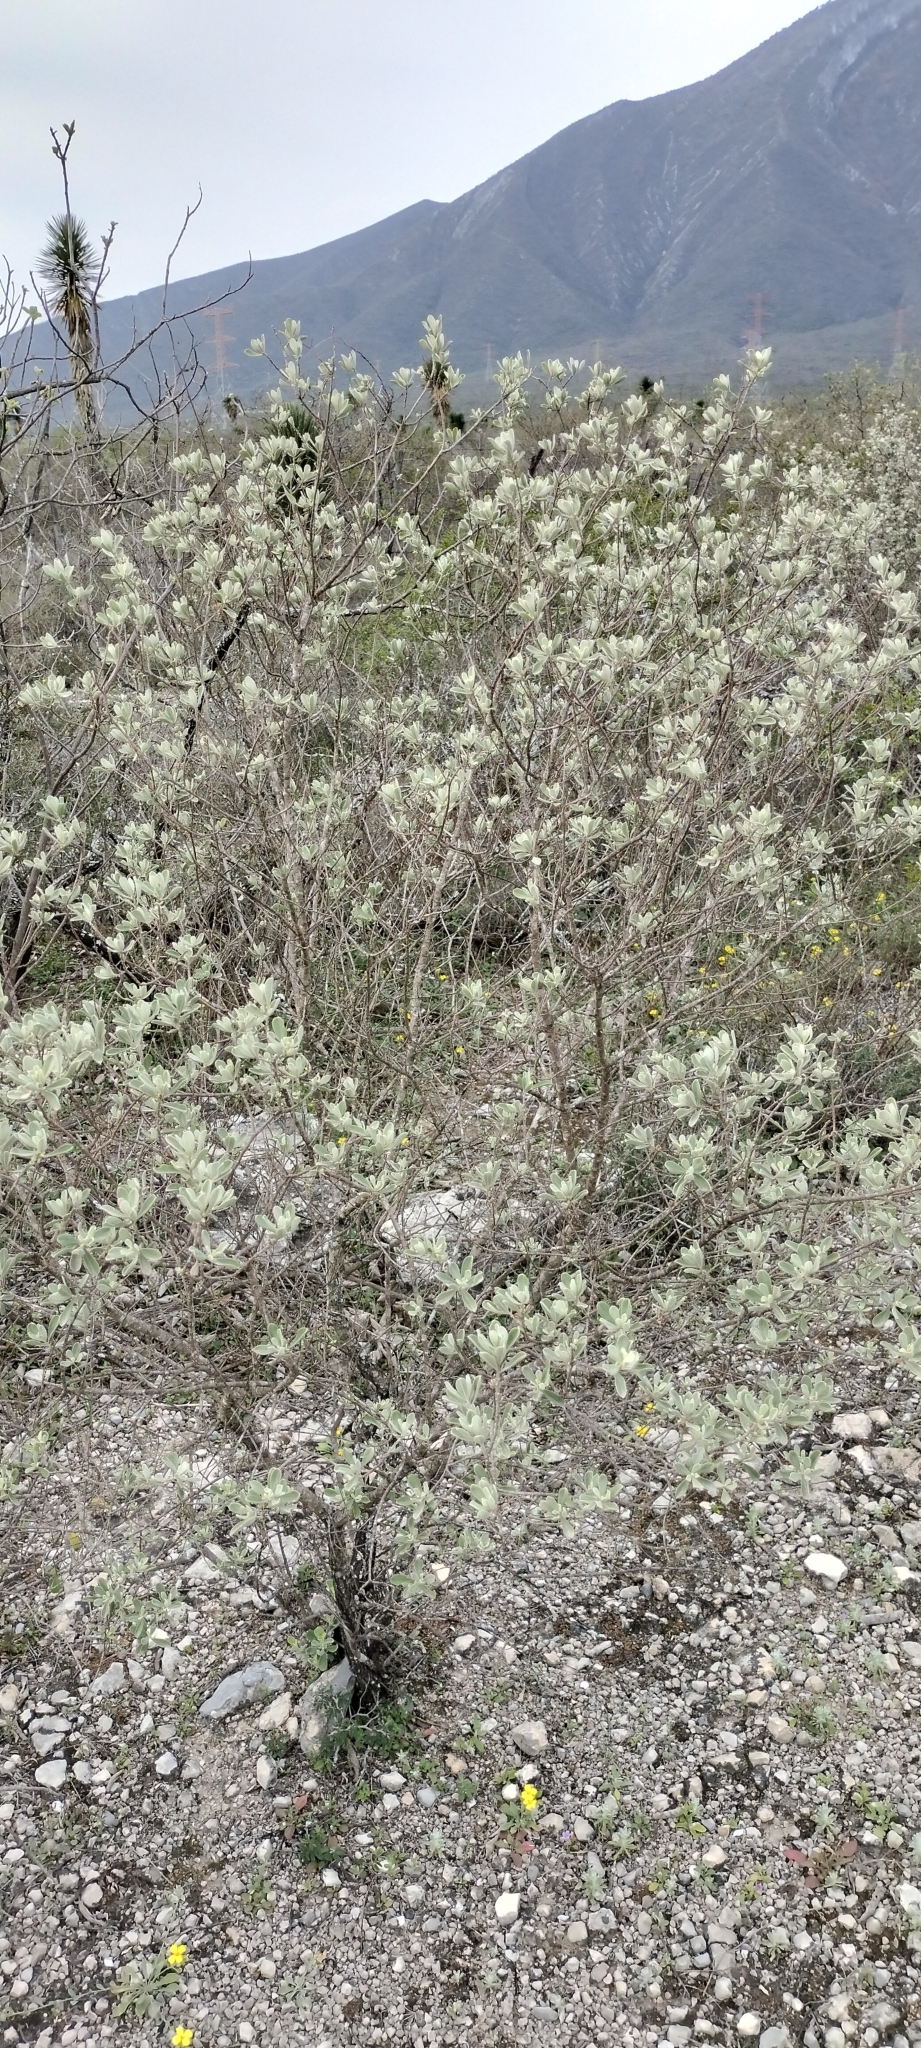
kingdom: Plantae
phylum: Tracheophyta
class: Magnoliopsida
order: Lamiales
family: Scrophulariaceae
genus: Leucophyllum
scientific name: Leucophyllum frutescens
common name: Texas silverleaf
